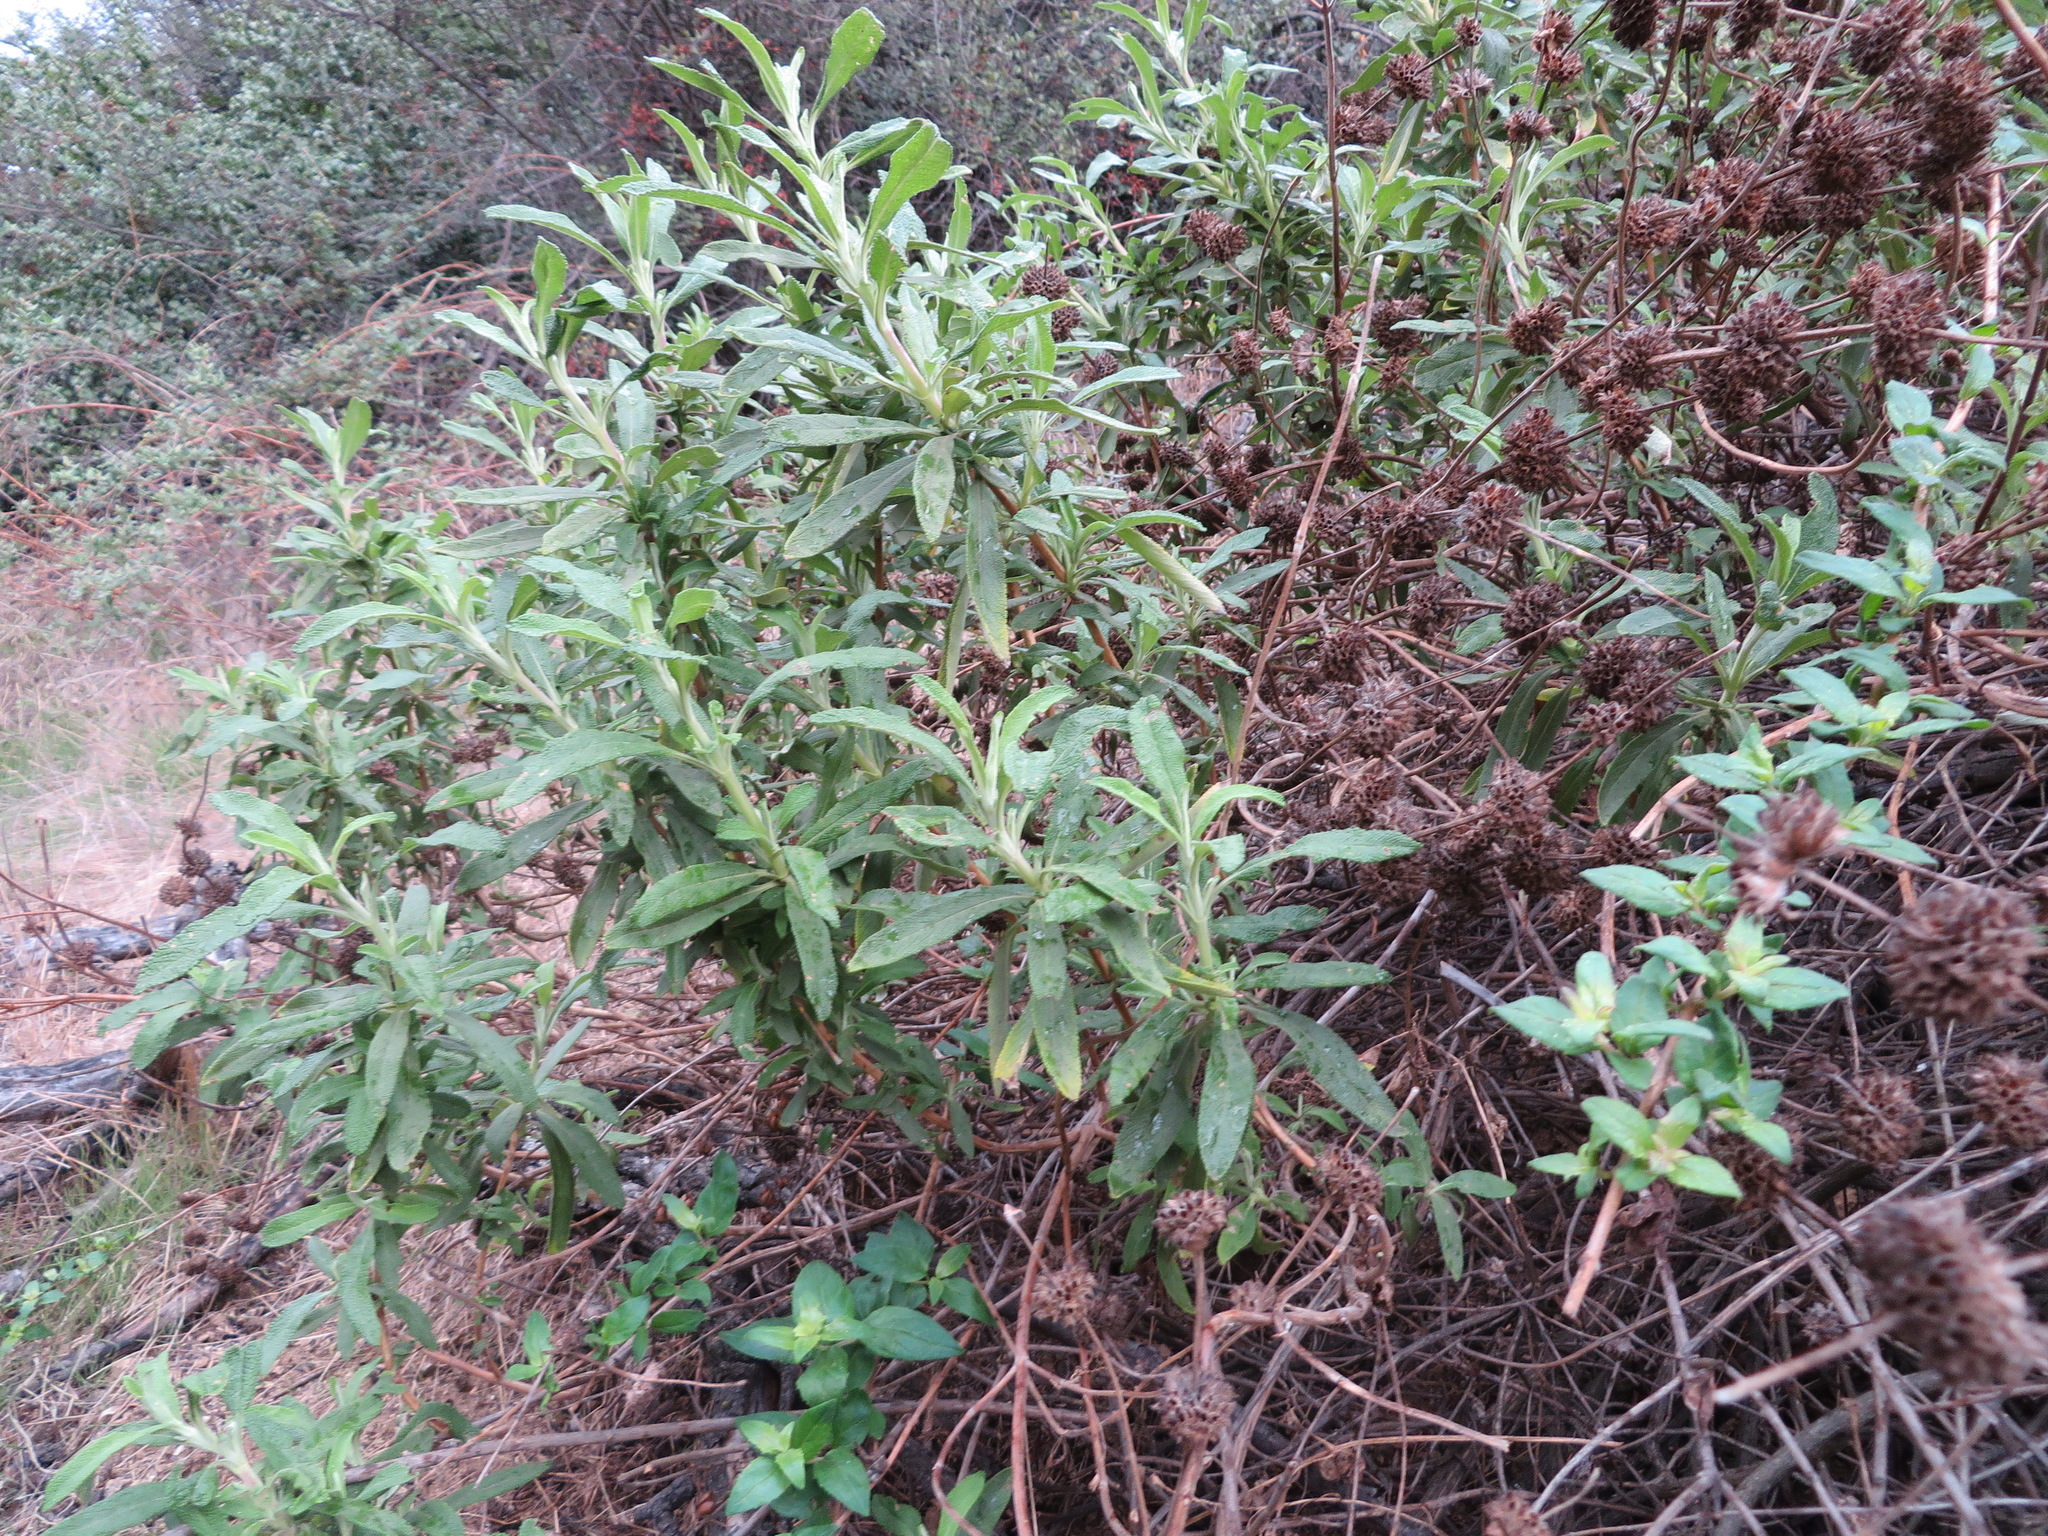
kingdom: Plantae
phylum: Tracheophyta
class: Magnoliopsida
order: Lamiales
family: Lamiaceae
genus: Salvia
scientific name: Salvia mellifera
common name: Black sage
